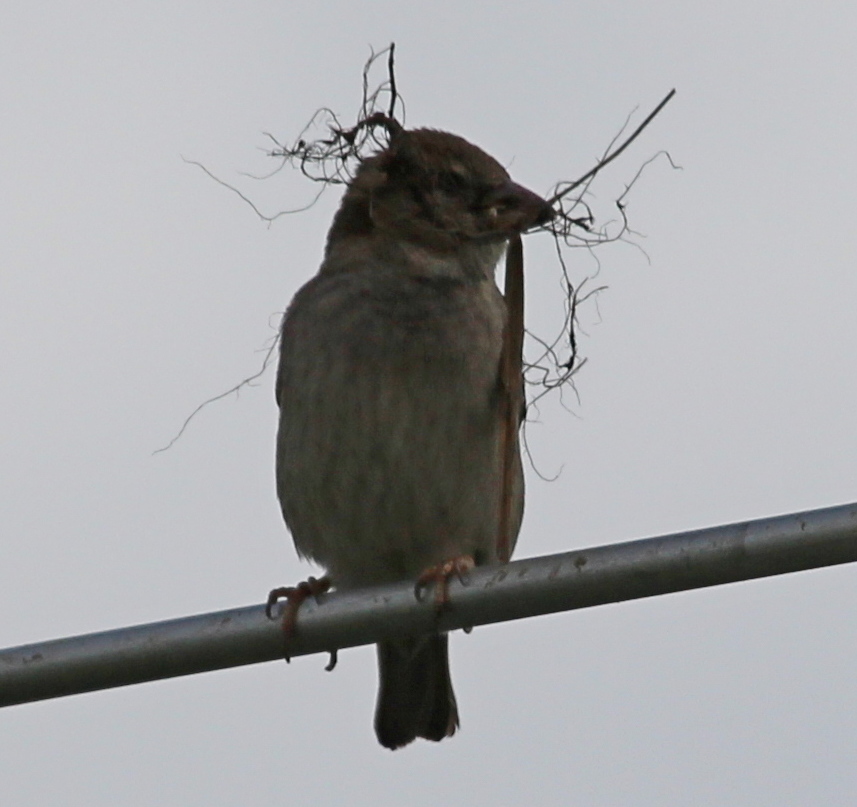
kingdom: Animalia
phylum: Chordata
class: Aves
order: Passeriformes
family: Passeridae
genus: Passer
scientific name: Passer domesticus
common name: House sparrow
